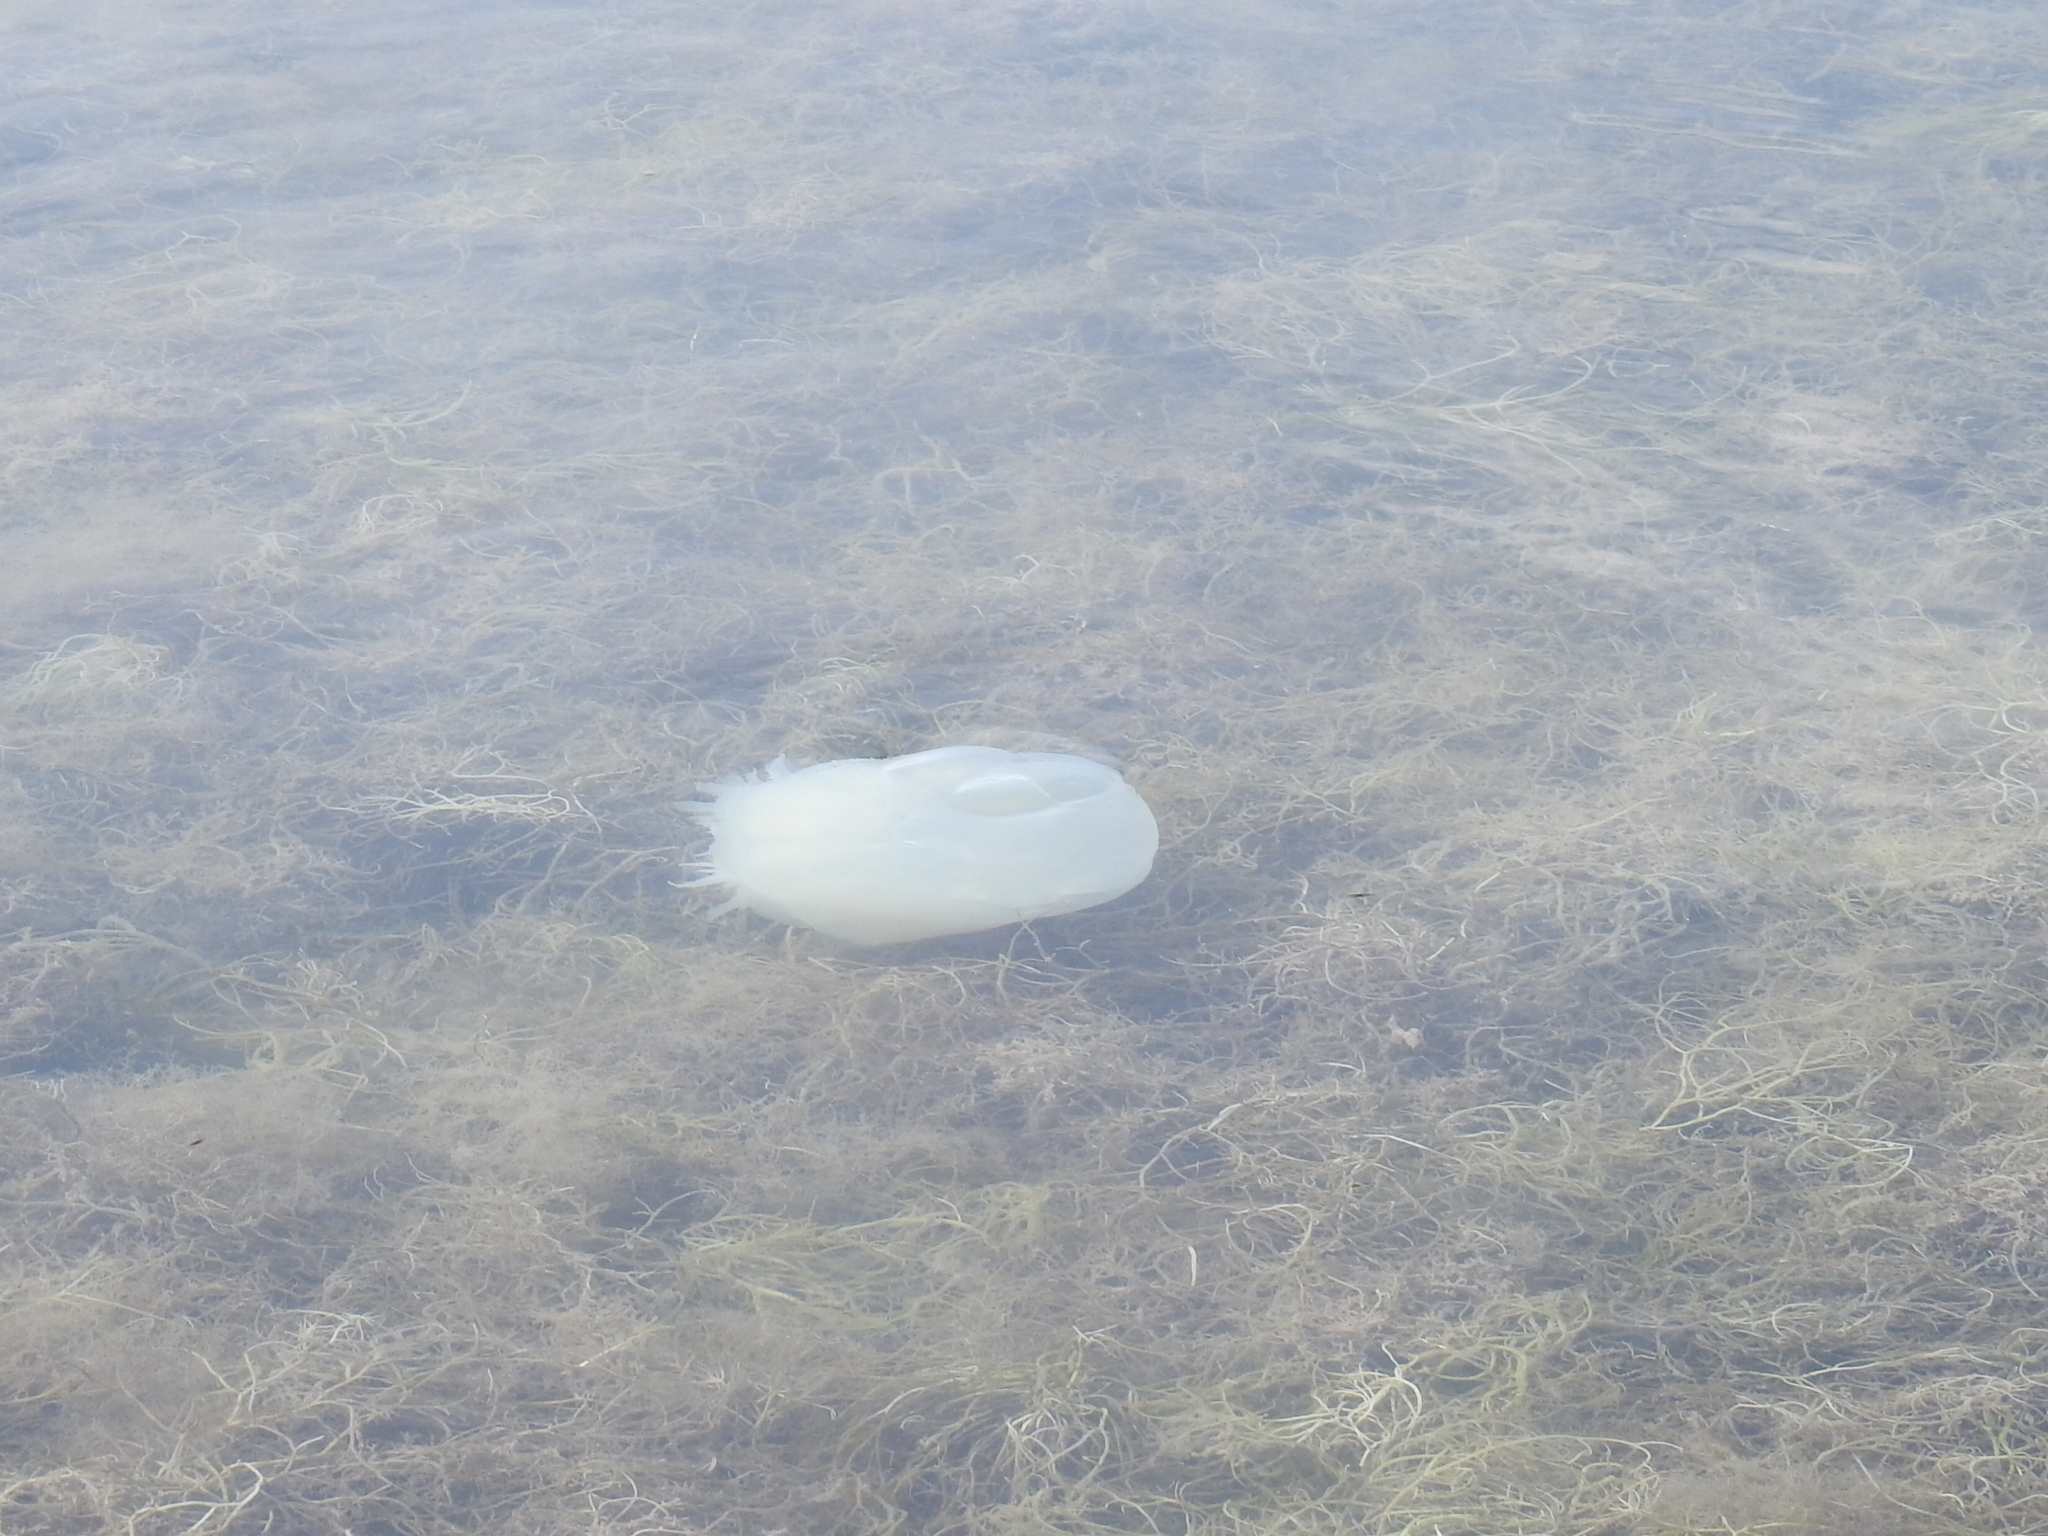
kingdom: Animalia
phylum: Cnidaria
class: Scyphozoa
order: Rhizostomeae
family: Stomolophidae
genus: Stomolophus
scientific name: Stomolophus meleagris
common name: Cabbagehead
